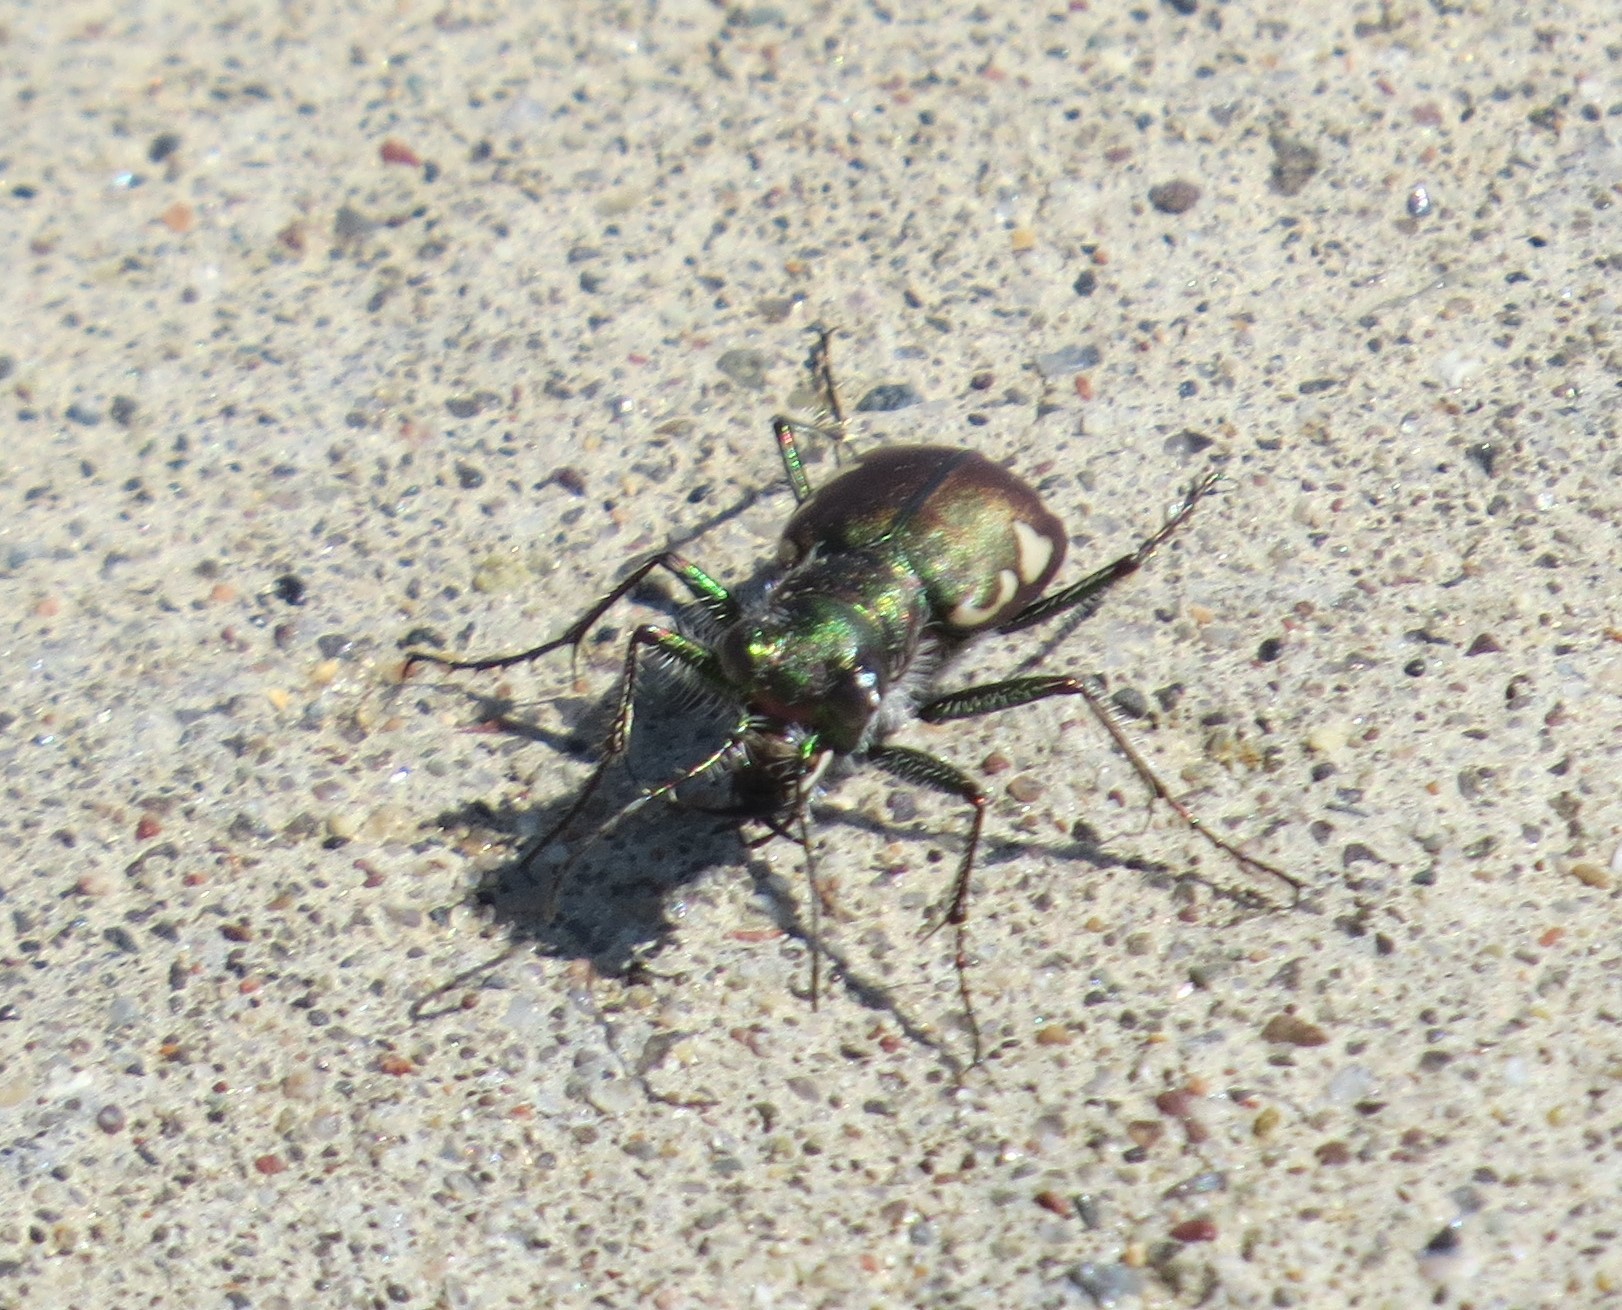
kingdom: Animalia
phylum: Arthropoda
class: Insecta
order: Coleoptera
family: Carabidae
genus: Cicindela
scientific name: Cicindela scutellaris
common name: Festive tiger beetle
